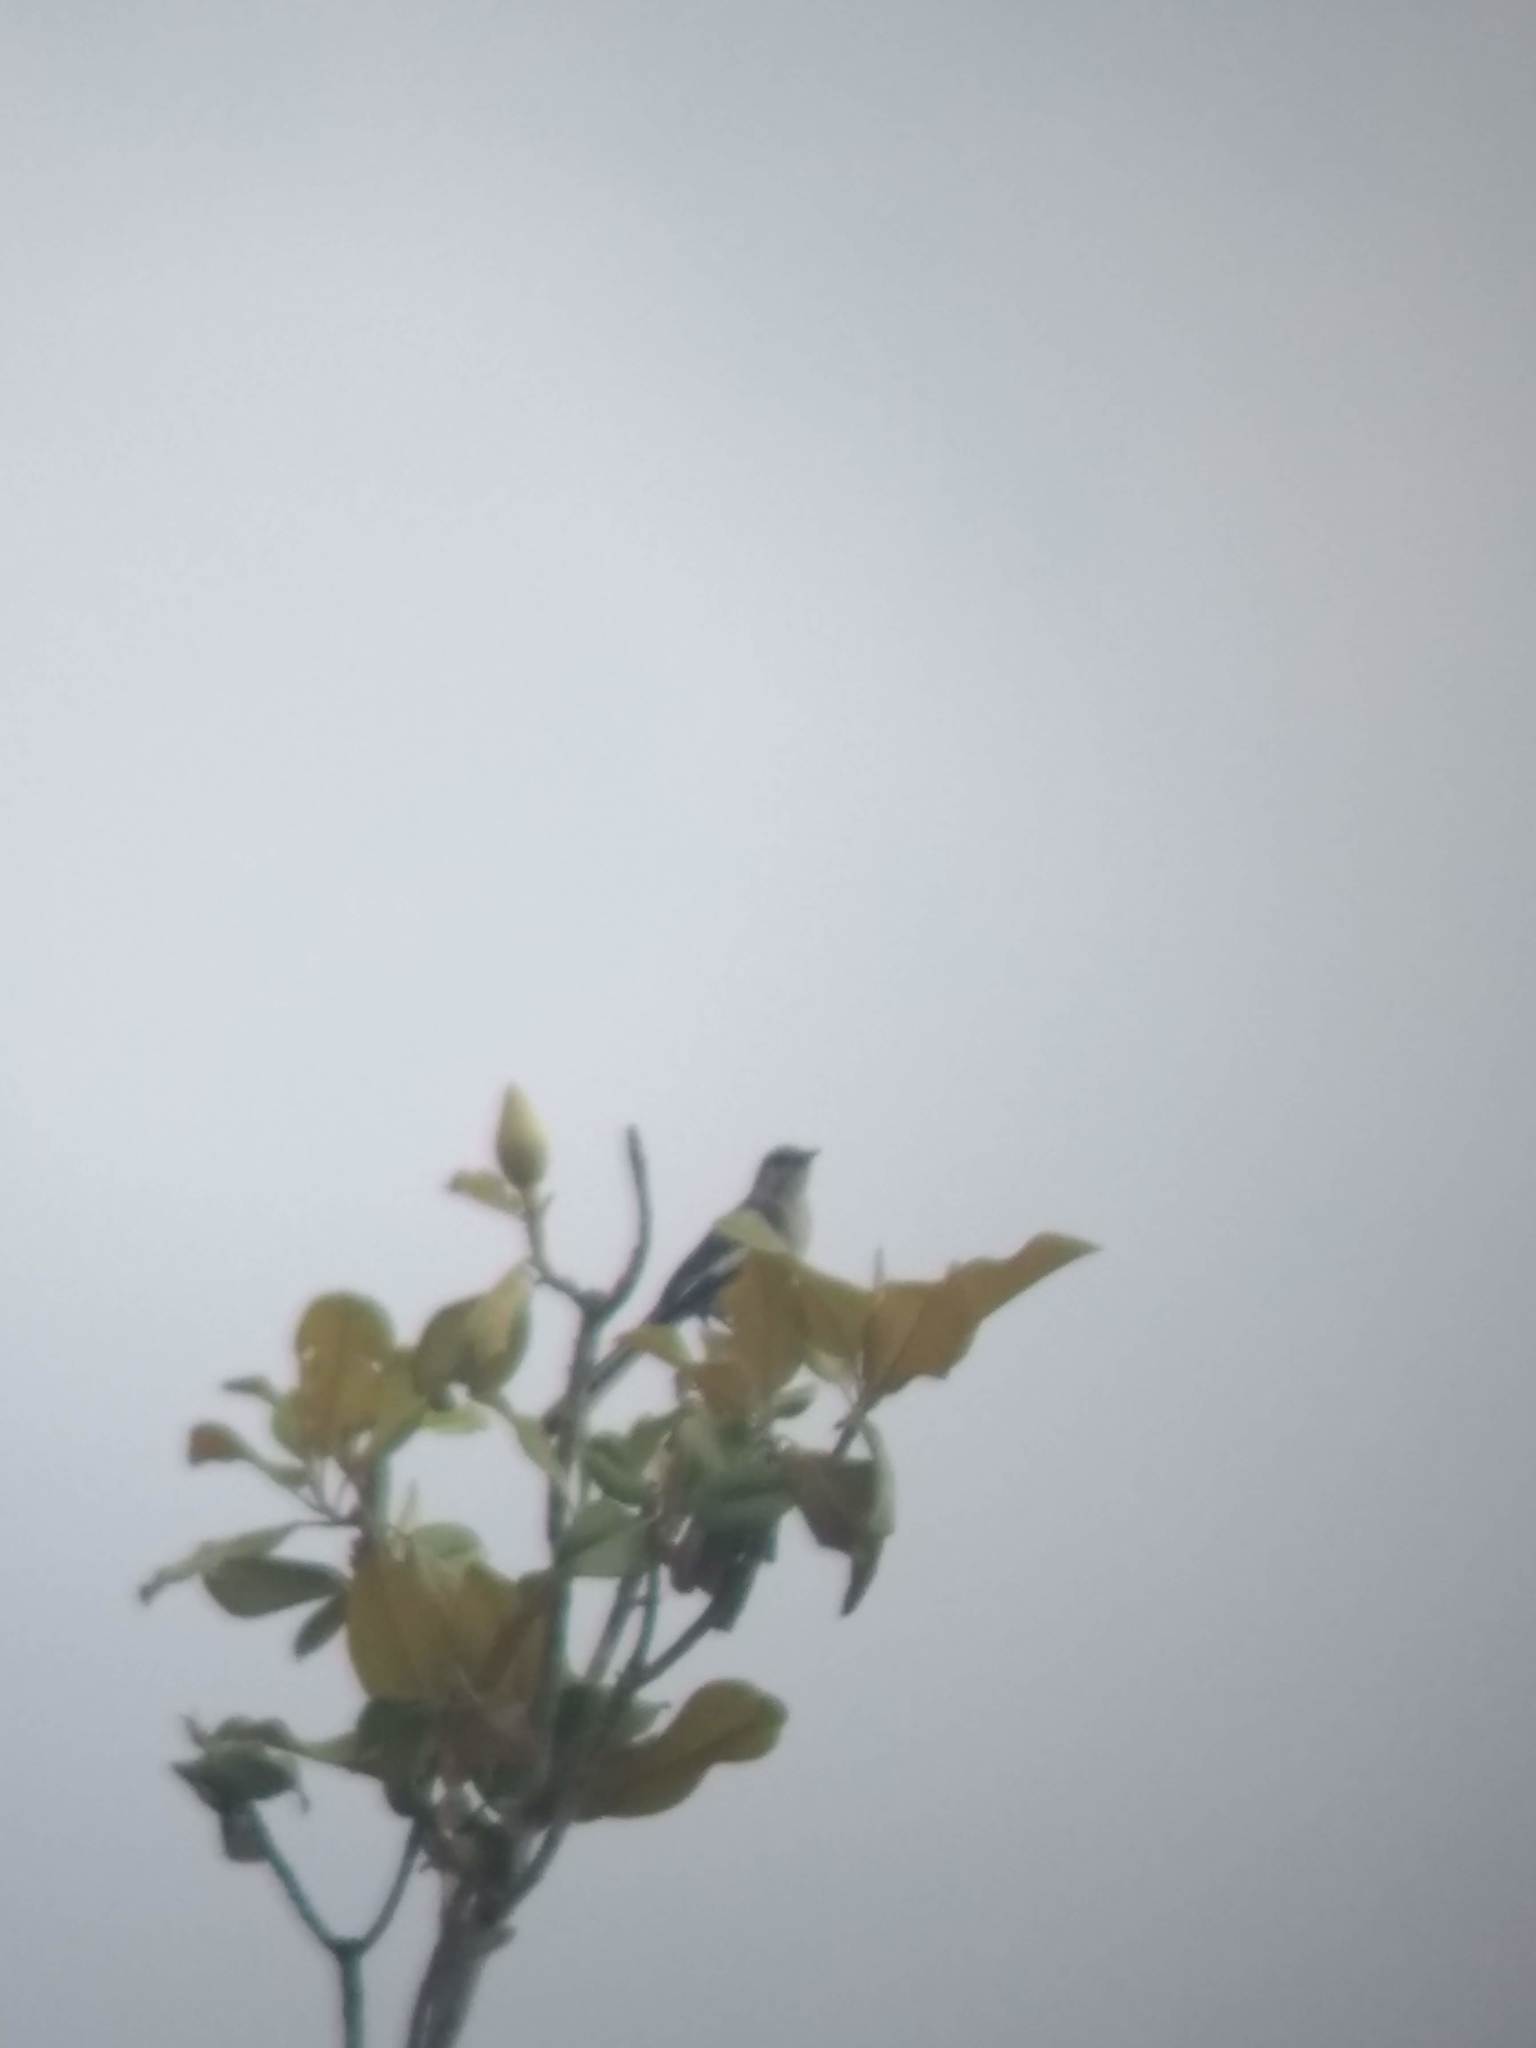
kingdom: Animalia
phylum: Chordata
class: Aves
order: Passeriformes
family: Mimidae
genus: Mimus
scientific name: Mimus polyglottos
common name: Northern mockingbird
